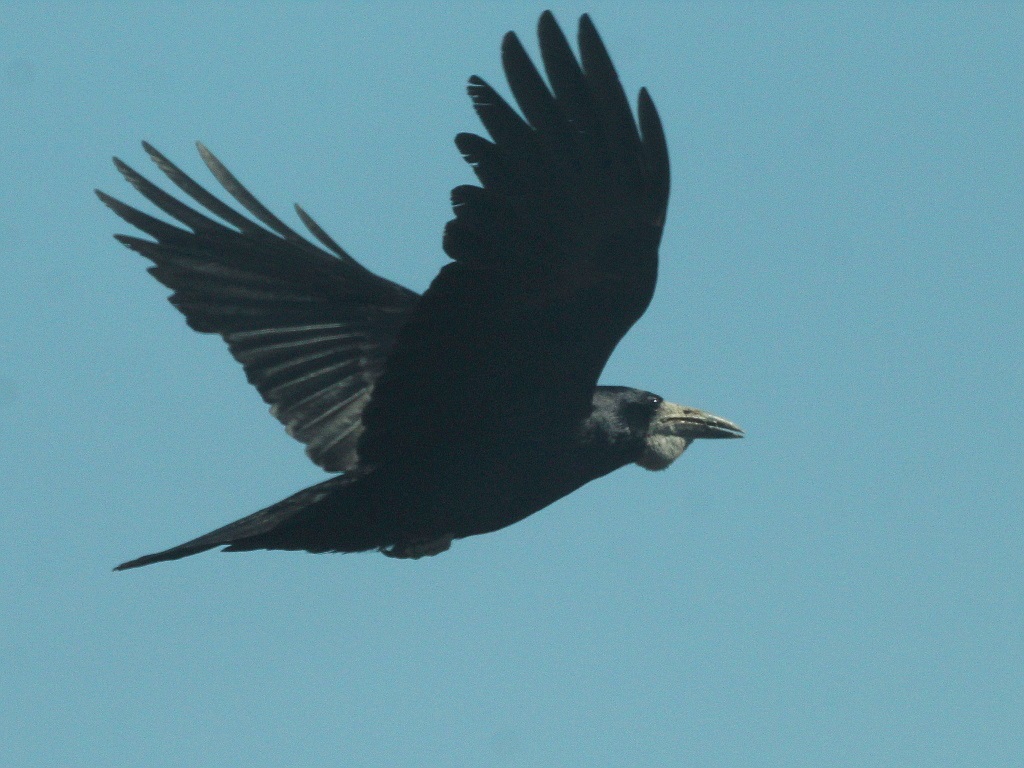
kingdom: Animalia
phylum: Chordata
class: Aves
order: Passeriformes
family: Corvidae
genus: Corvus
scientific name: Corvus frugilegus
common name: Rook
